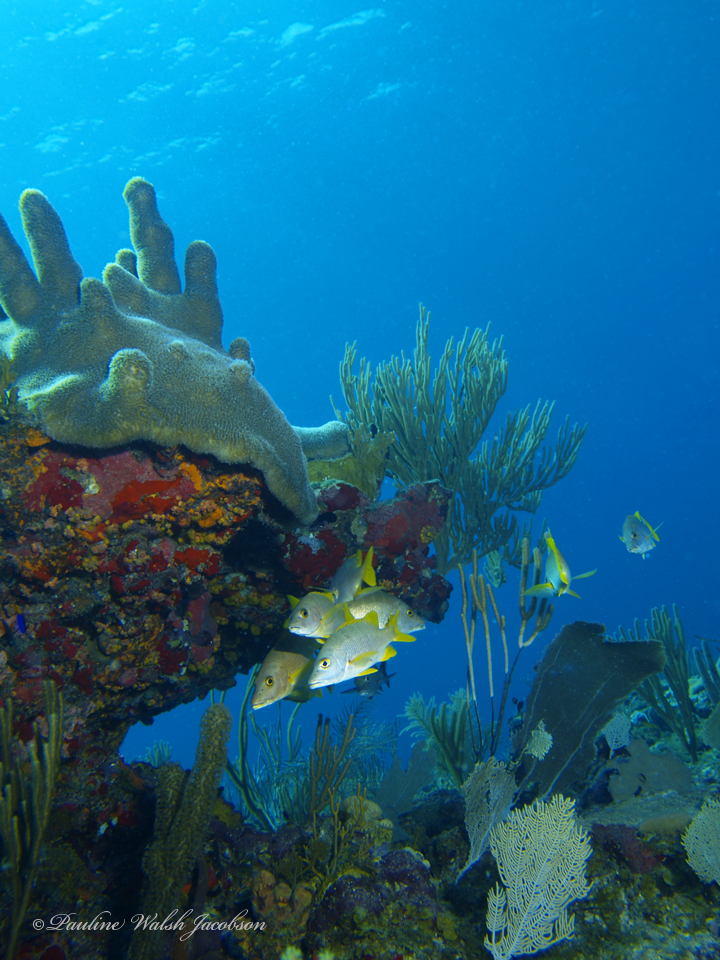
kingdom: Animalia
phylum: Chordata
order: Perciformes
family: Lutjanidae
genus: Lutjanus
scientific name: Lutjanus apodus
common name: Schoolmaster
